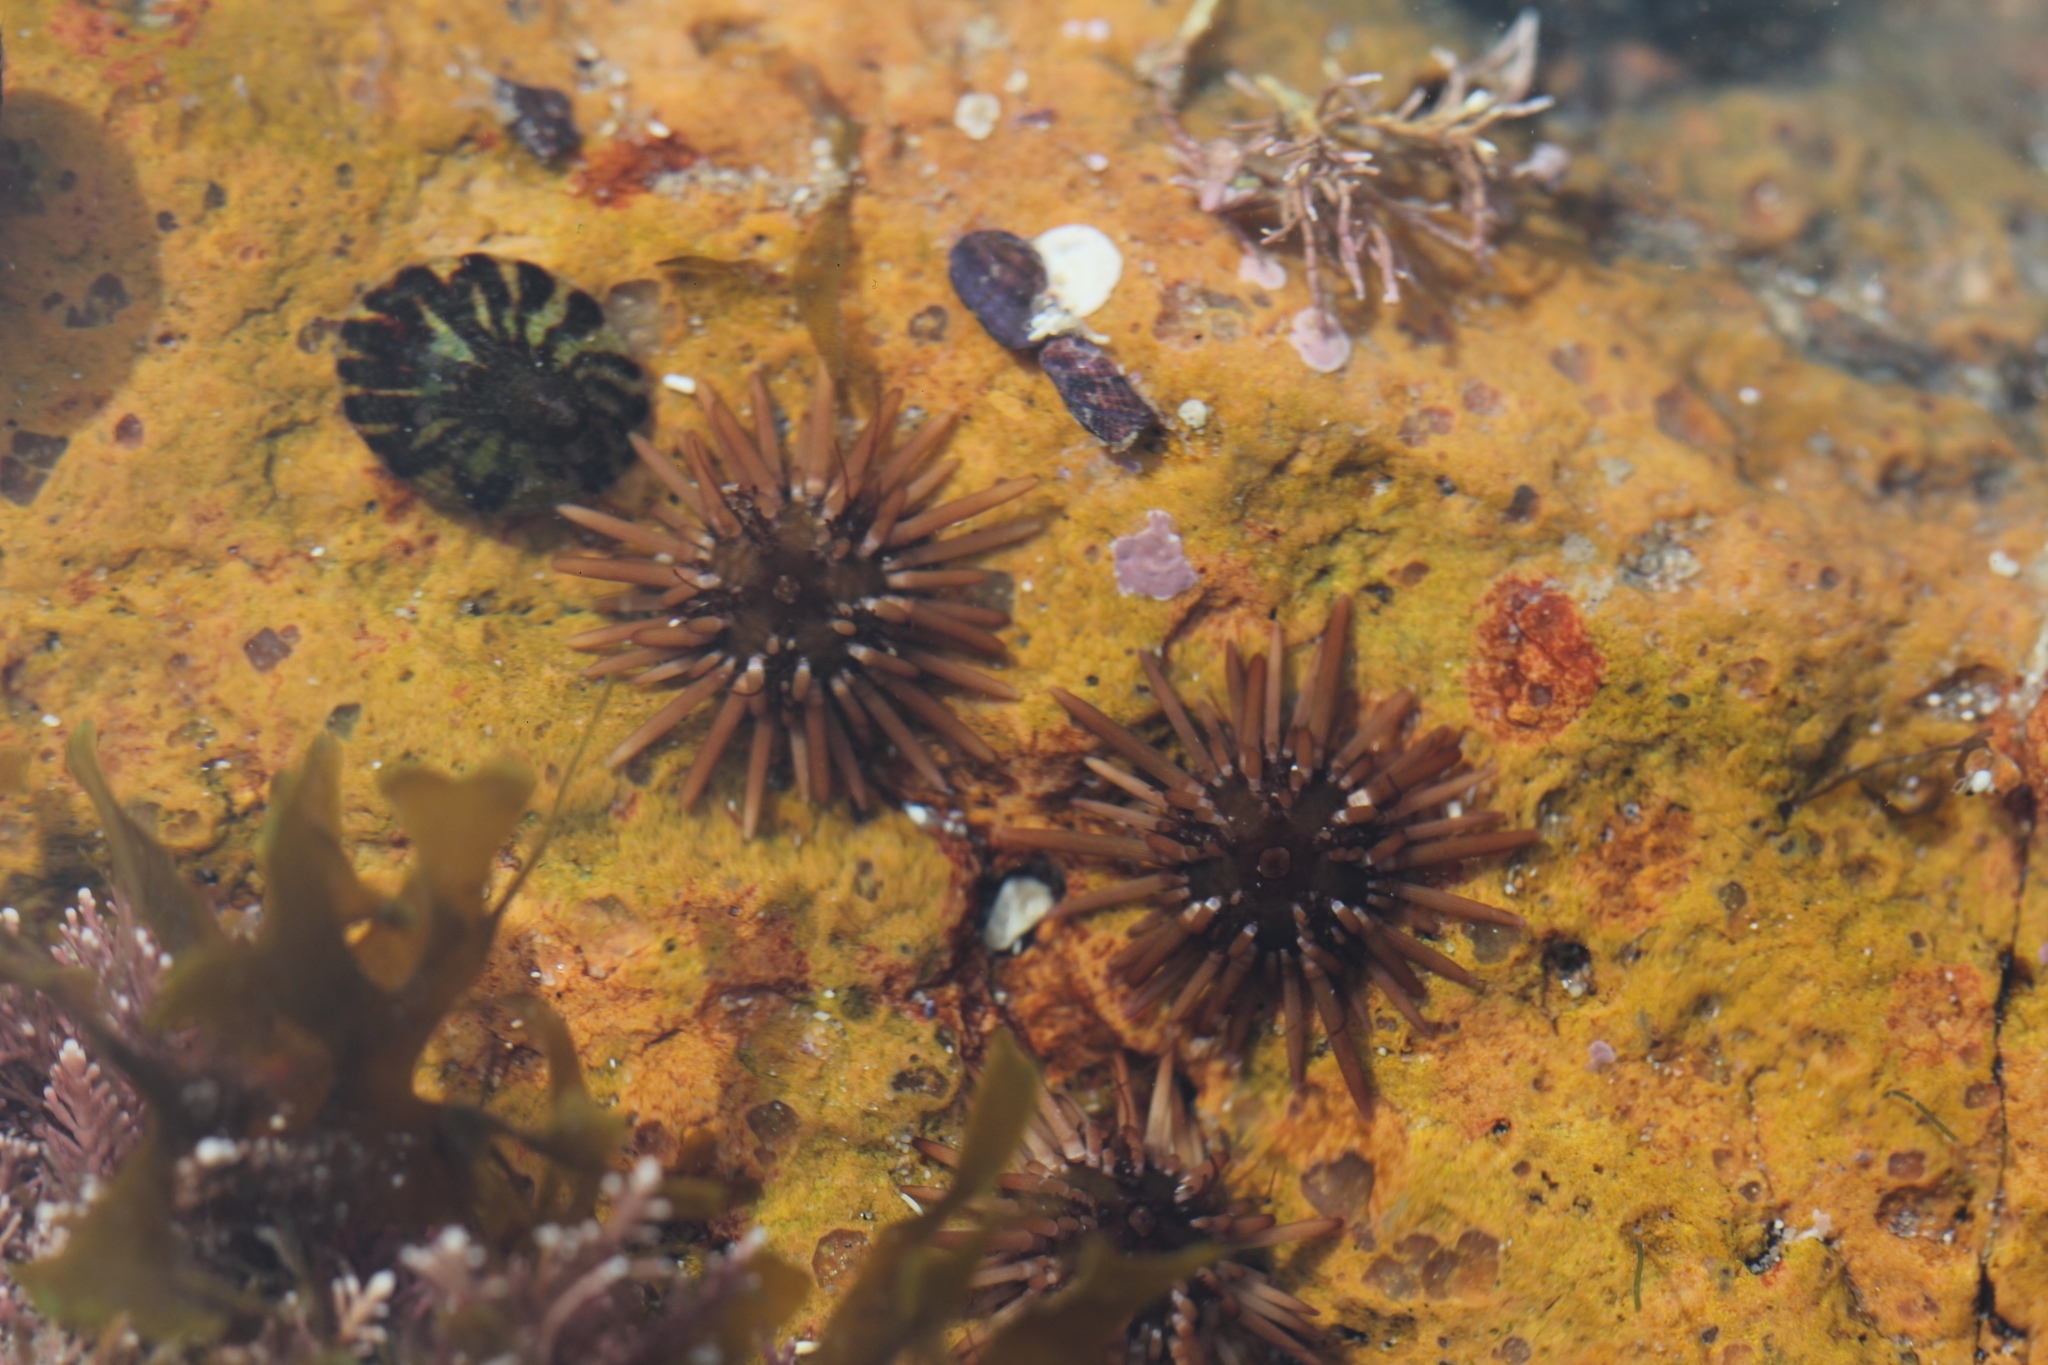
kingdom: Animalia
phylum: Echinodermata
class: Echinoidea
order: Arbacioida
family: Arbaciidae
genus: Arbacia
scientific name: Arbacia dufresnii
